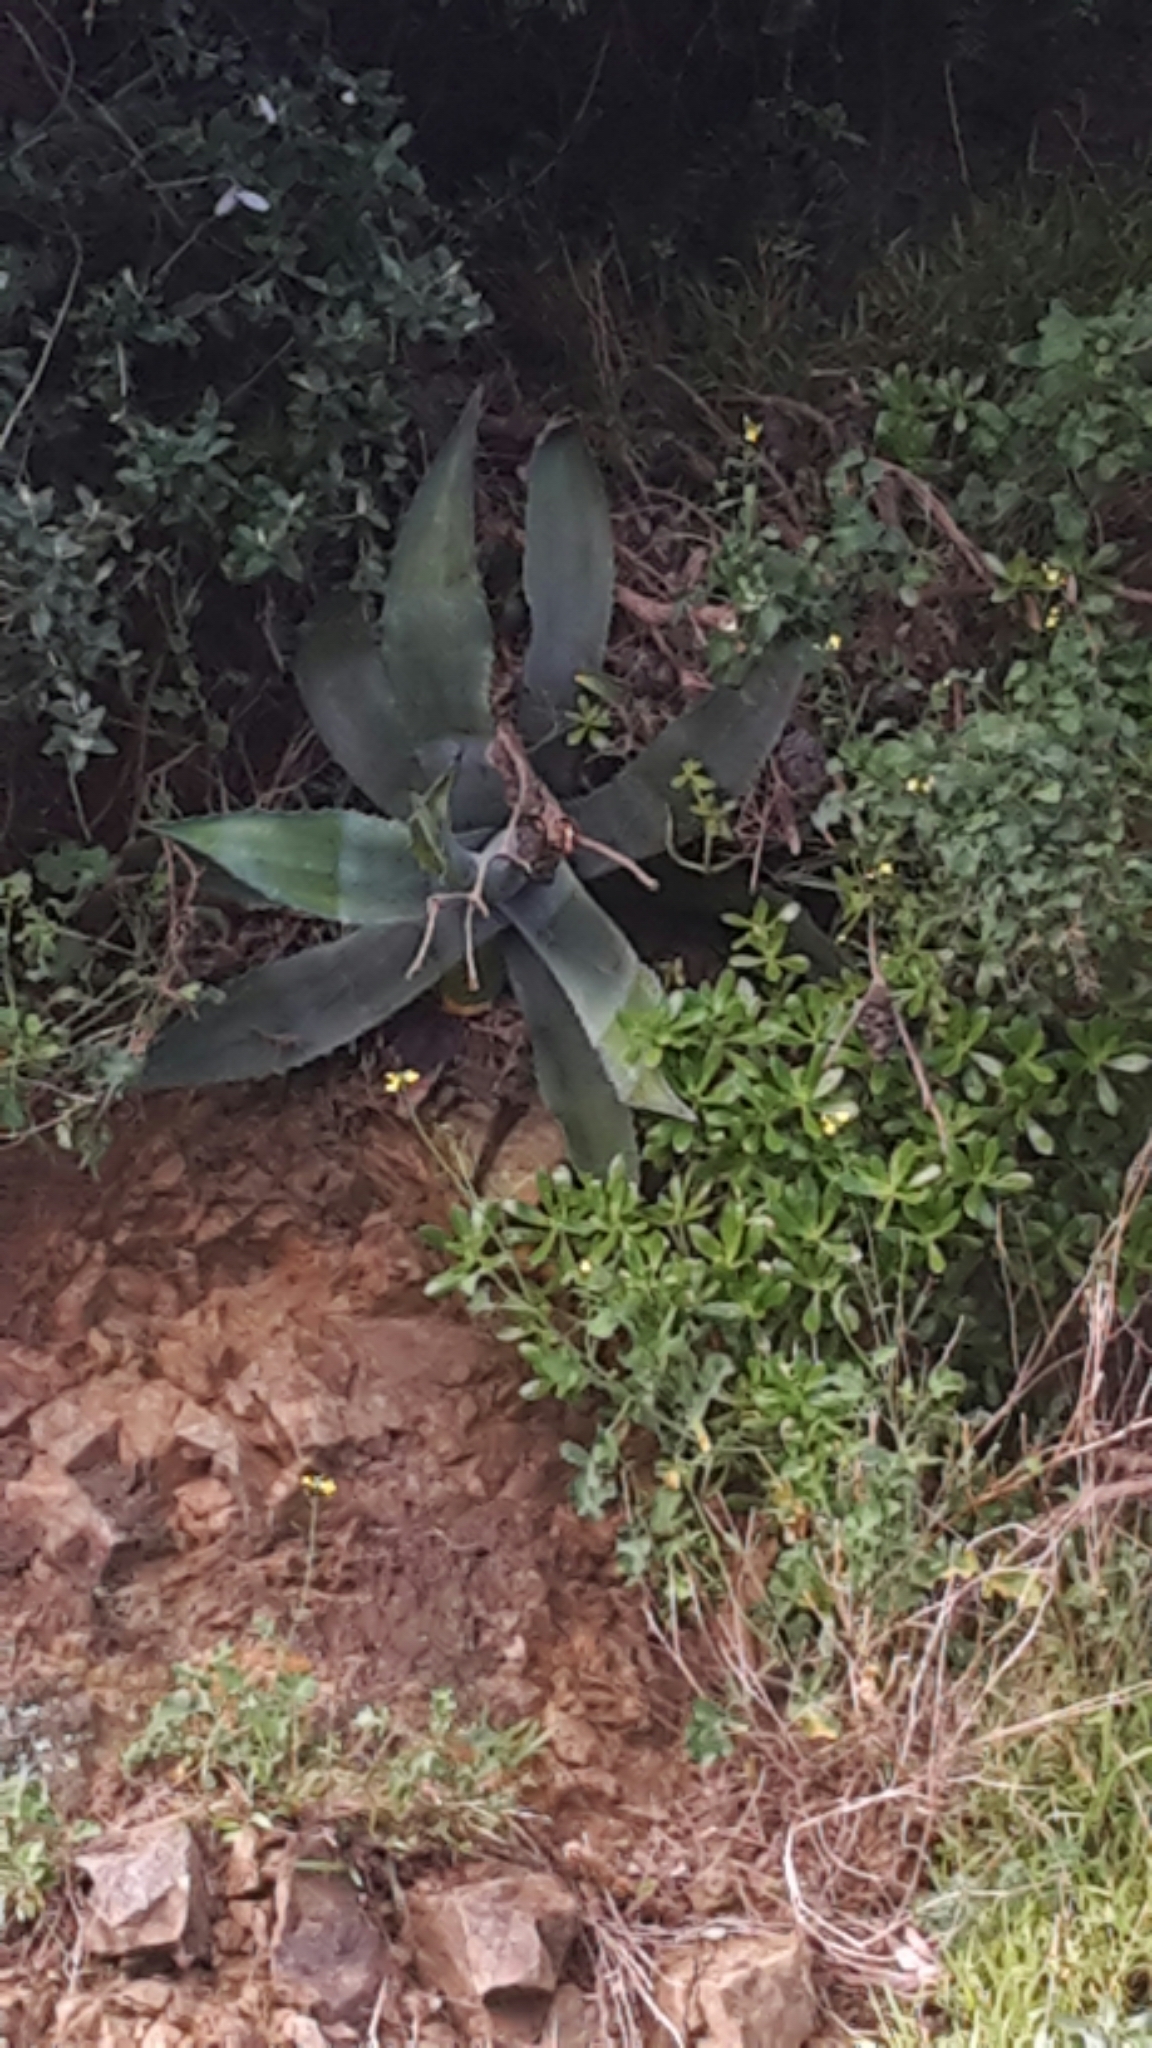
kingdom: Plantae
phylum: Tracheophyta
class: Liliopsida
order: Asparagales
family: Asparagaceae
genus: Agave
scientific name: Agave americana
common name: Centuryplant
